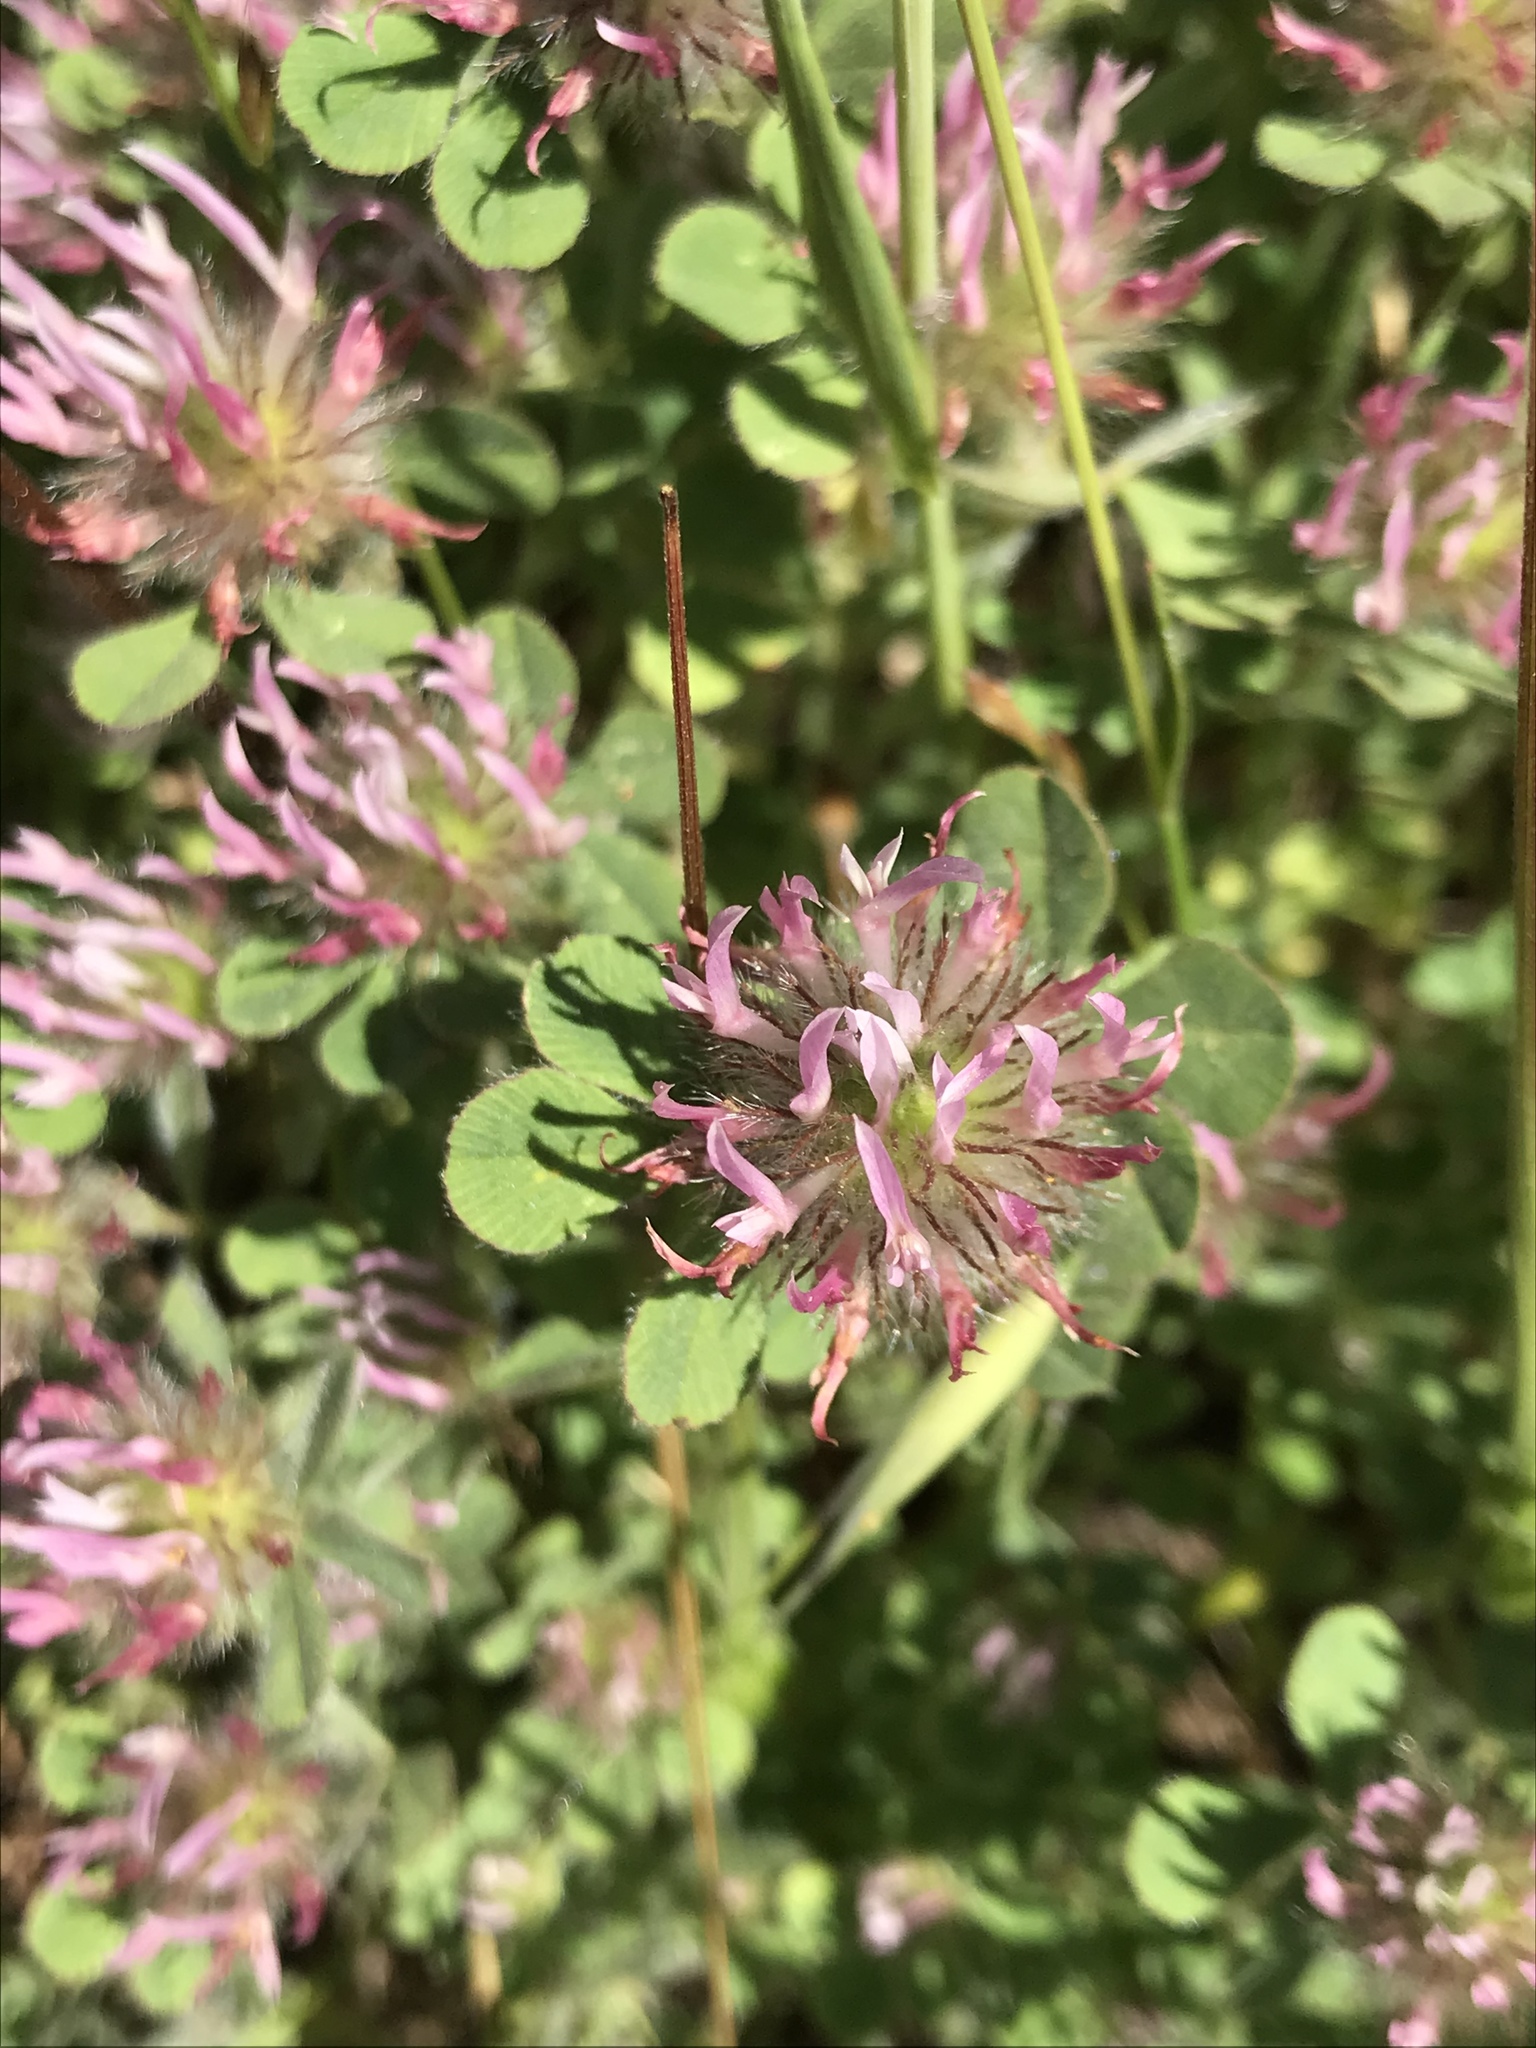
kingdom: Plantae
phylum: Tracheophyta
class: Magnoliopsida
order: Fabales
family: Fabaceae
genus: Trifolium
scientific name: Trifolium hirtum
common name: Rose clover
